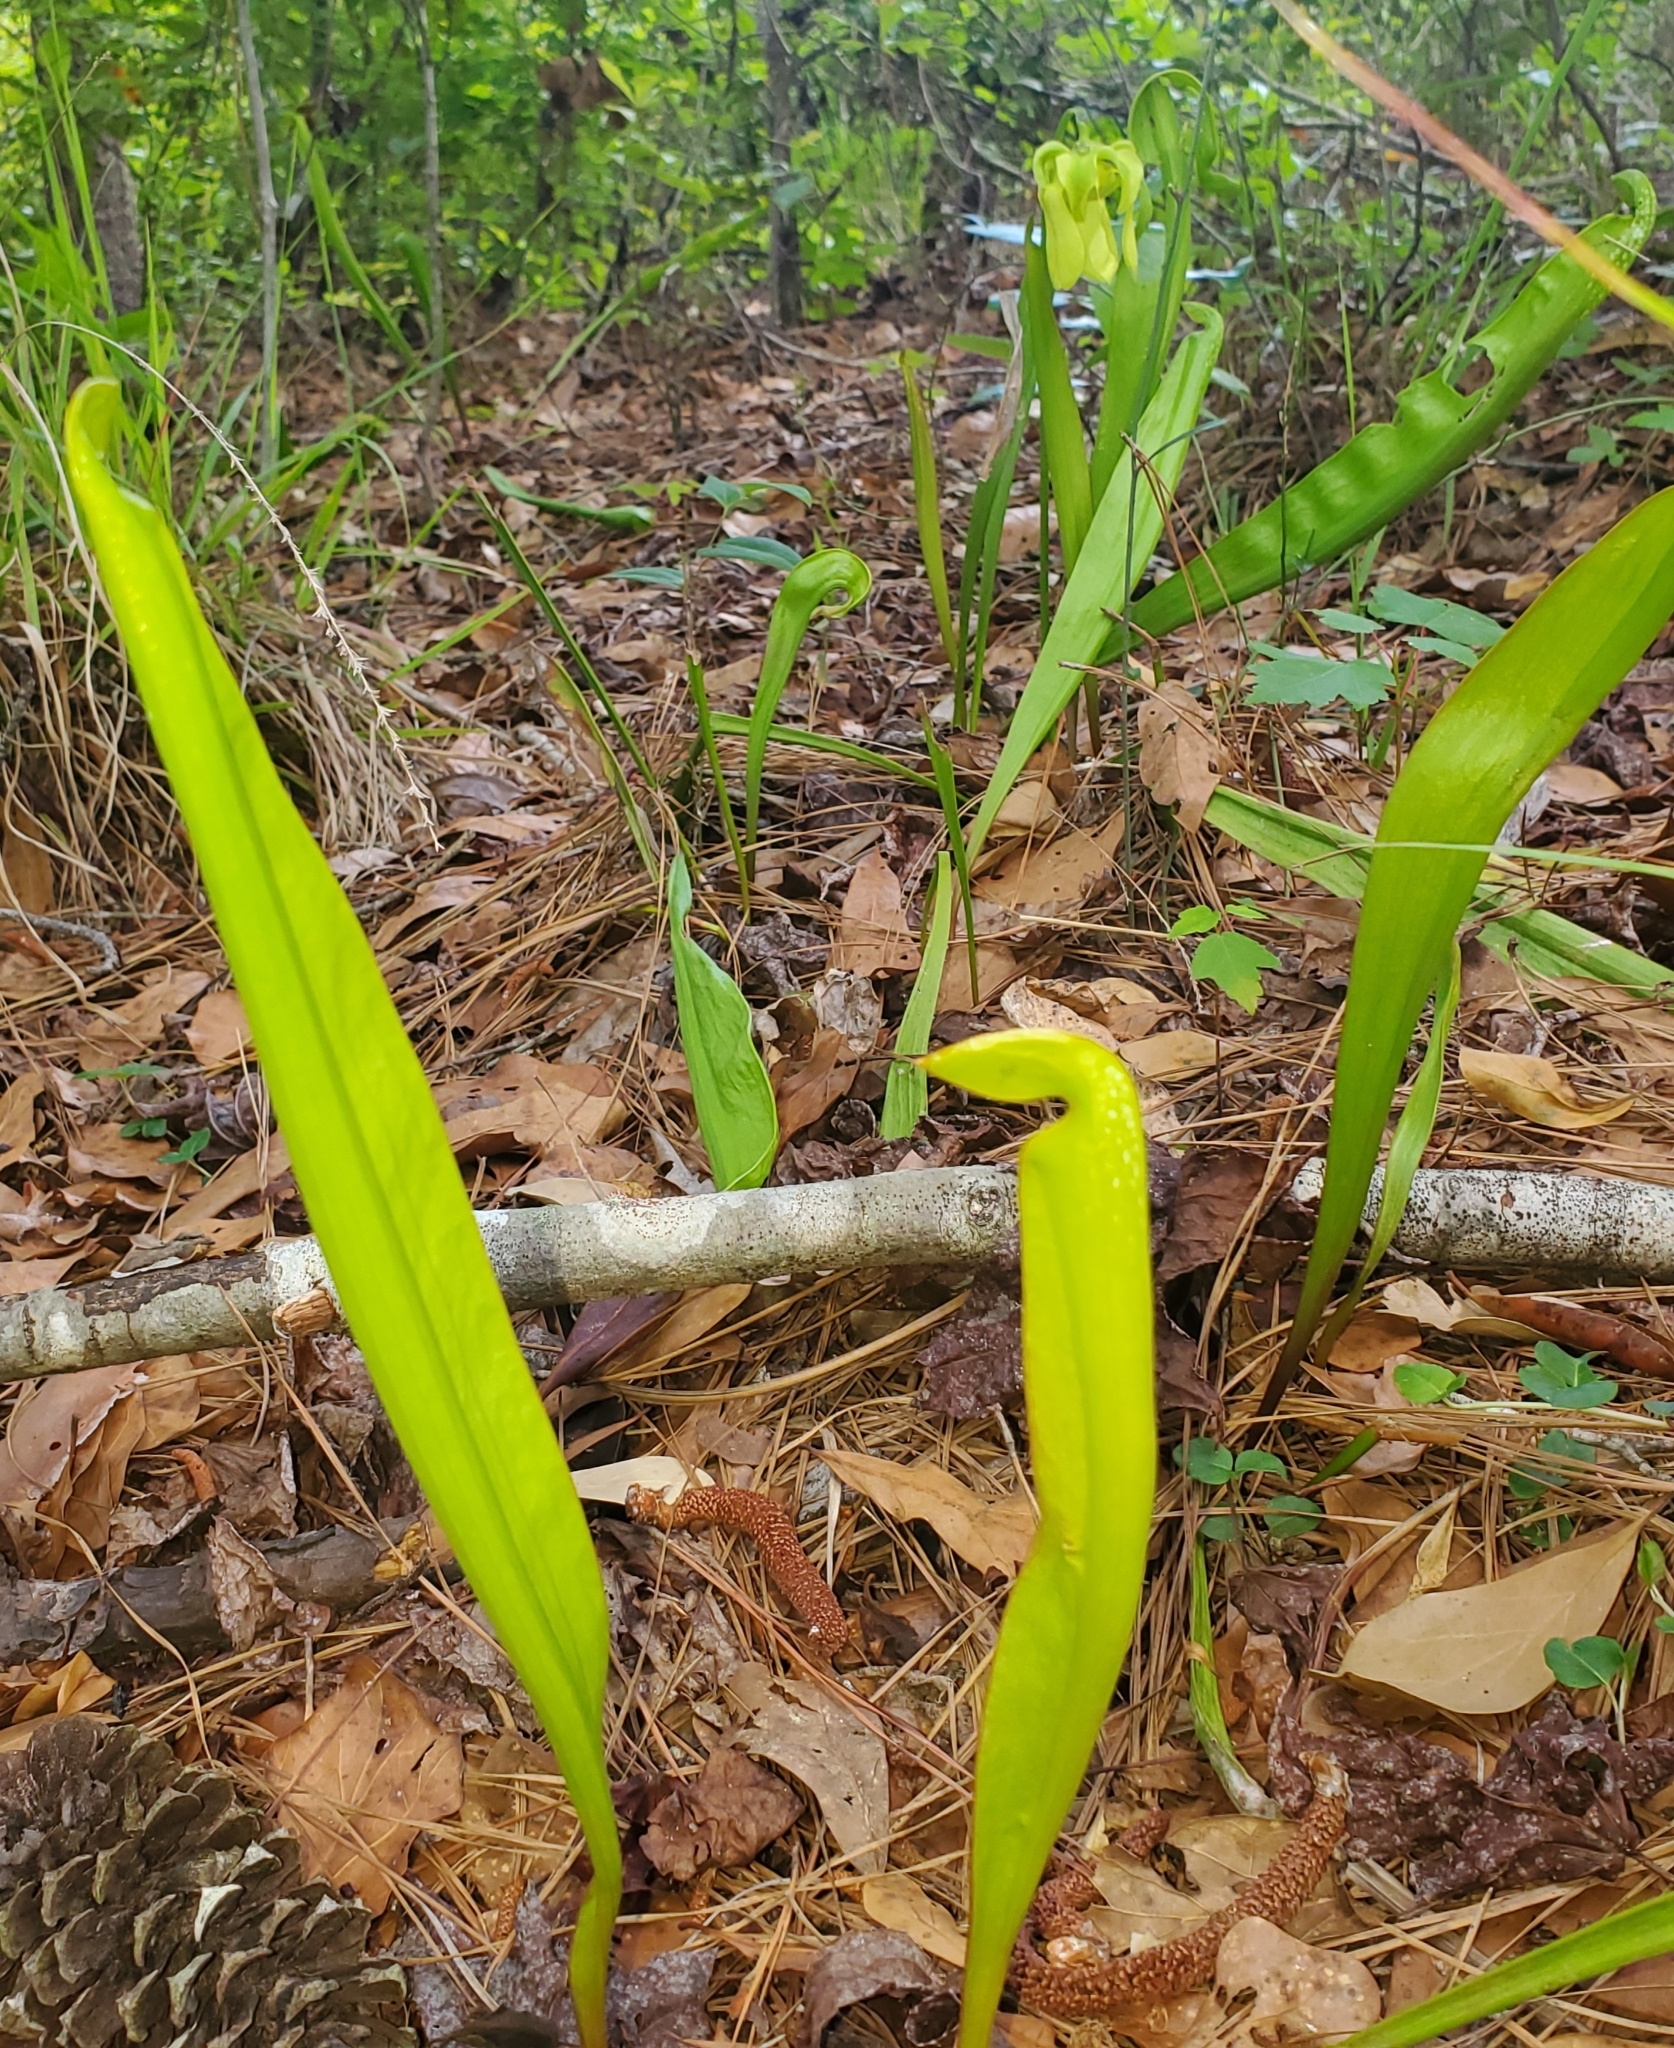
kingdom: Plantae
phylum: Tracheophyta
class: Magnoliopsida
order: Ericales
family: Sarraceniaceae
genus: Sarracenia
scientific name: Sarracenia minor
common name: Rainhat-trumpet
